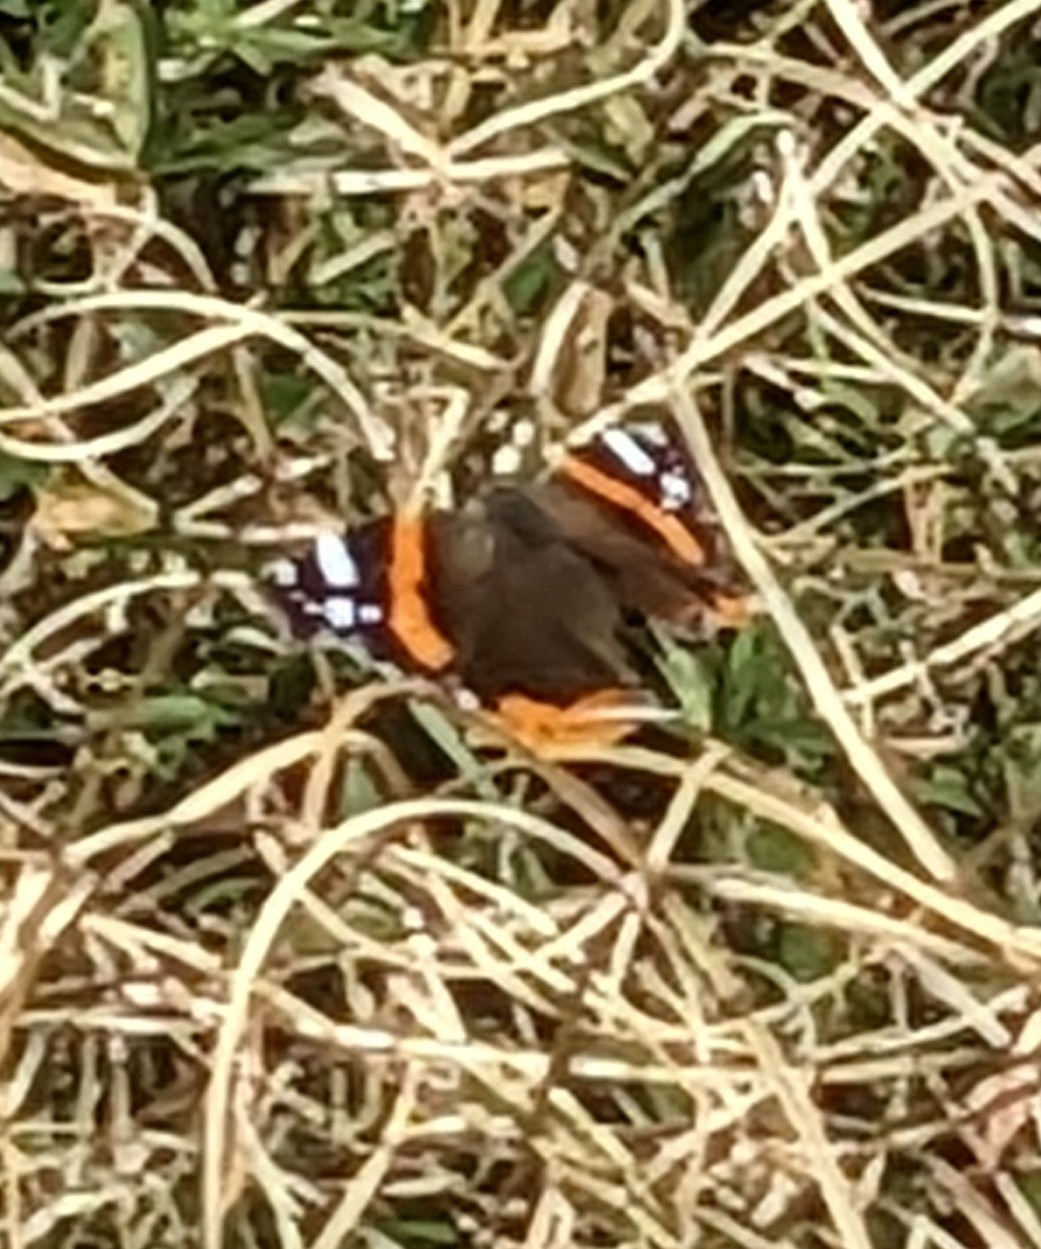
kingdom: Animalia
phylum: Arthropoda
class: Insecta
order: Lepidoptera
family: Nymphalidae
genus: Vanessa
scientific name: Vanessa atalanta
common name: Red admiral
